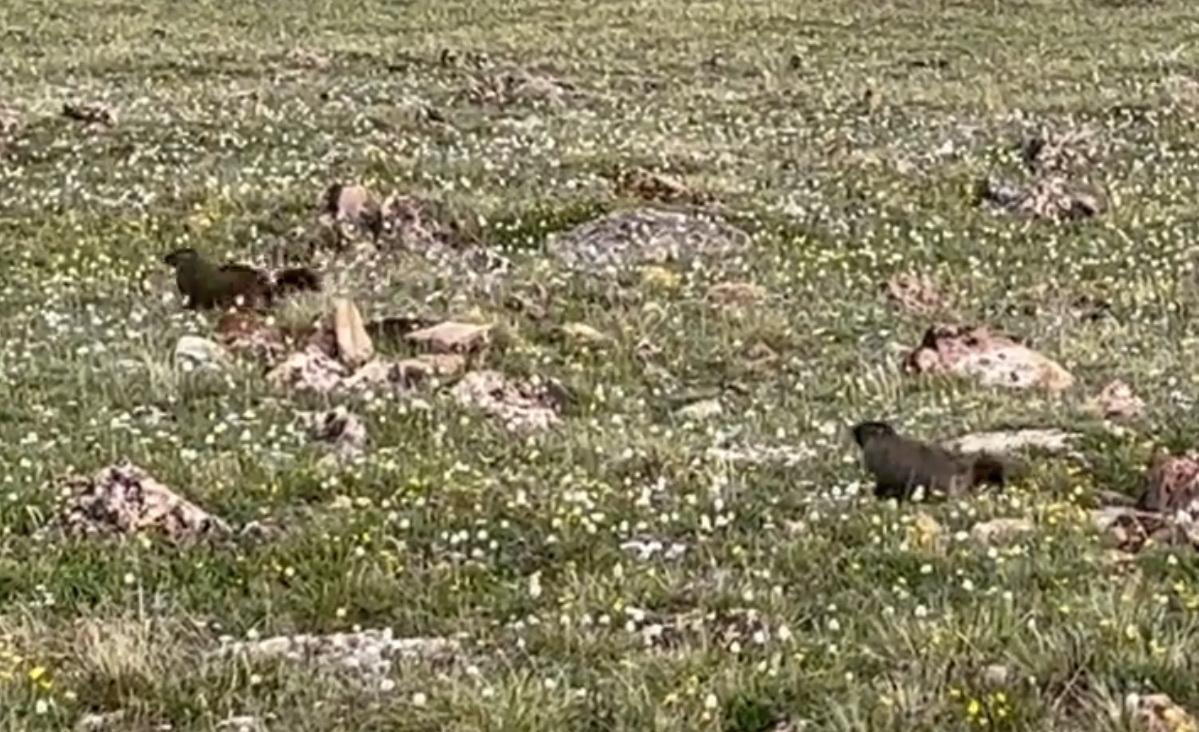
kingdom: Animalia
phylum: Chordata
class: Mammalia
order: Rodentia
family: Sciuridae
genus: Marmota
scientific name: Marmota flaviventris
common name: Yellow-bellied marmot
